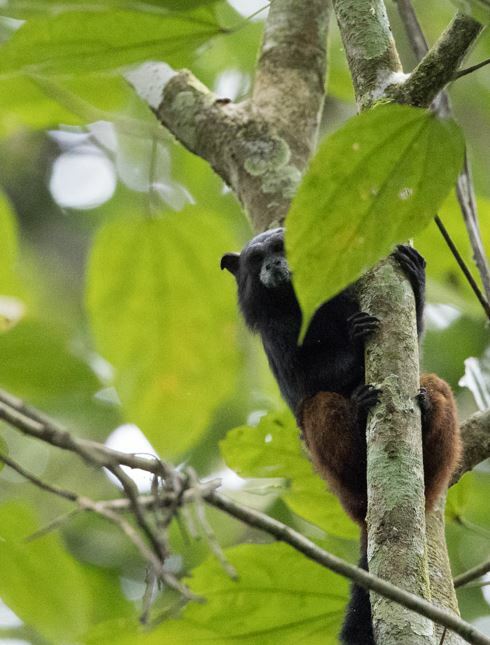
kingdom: Animalia
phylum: Chordata
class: Mammalia
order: Primates
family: Callitrichidae
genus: Leontocebus
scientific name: Leontocebus weddelli
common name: Weddell's saddle-back tamarin
